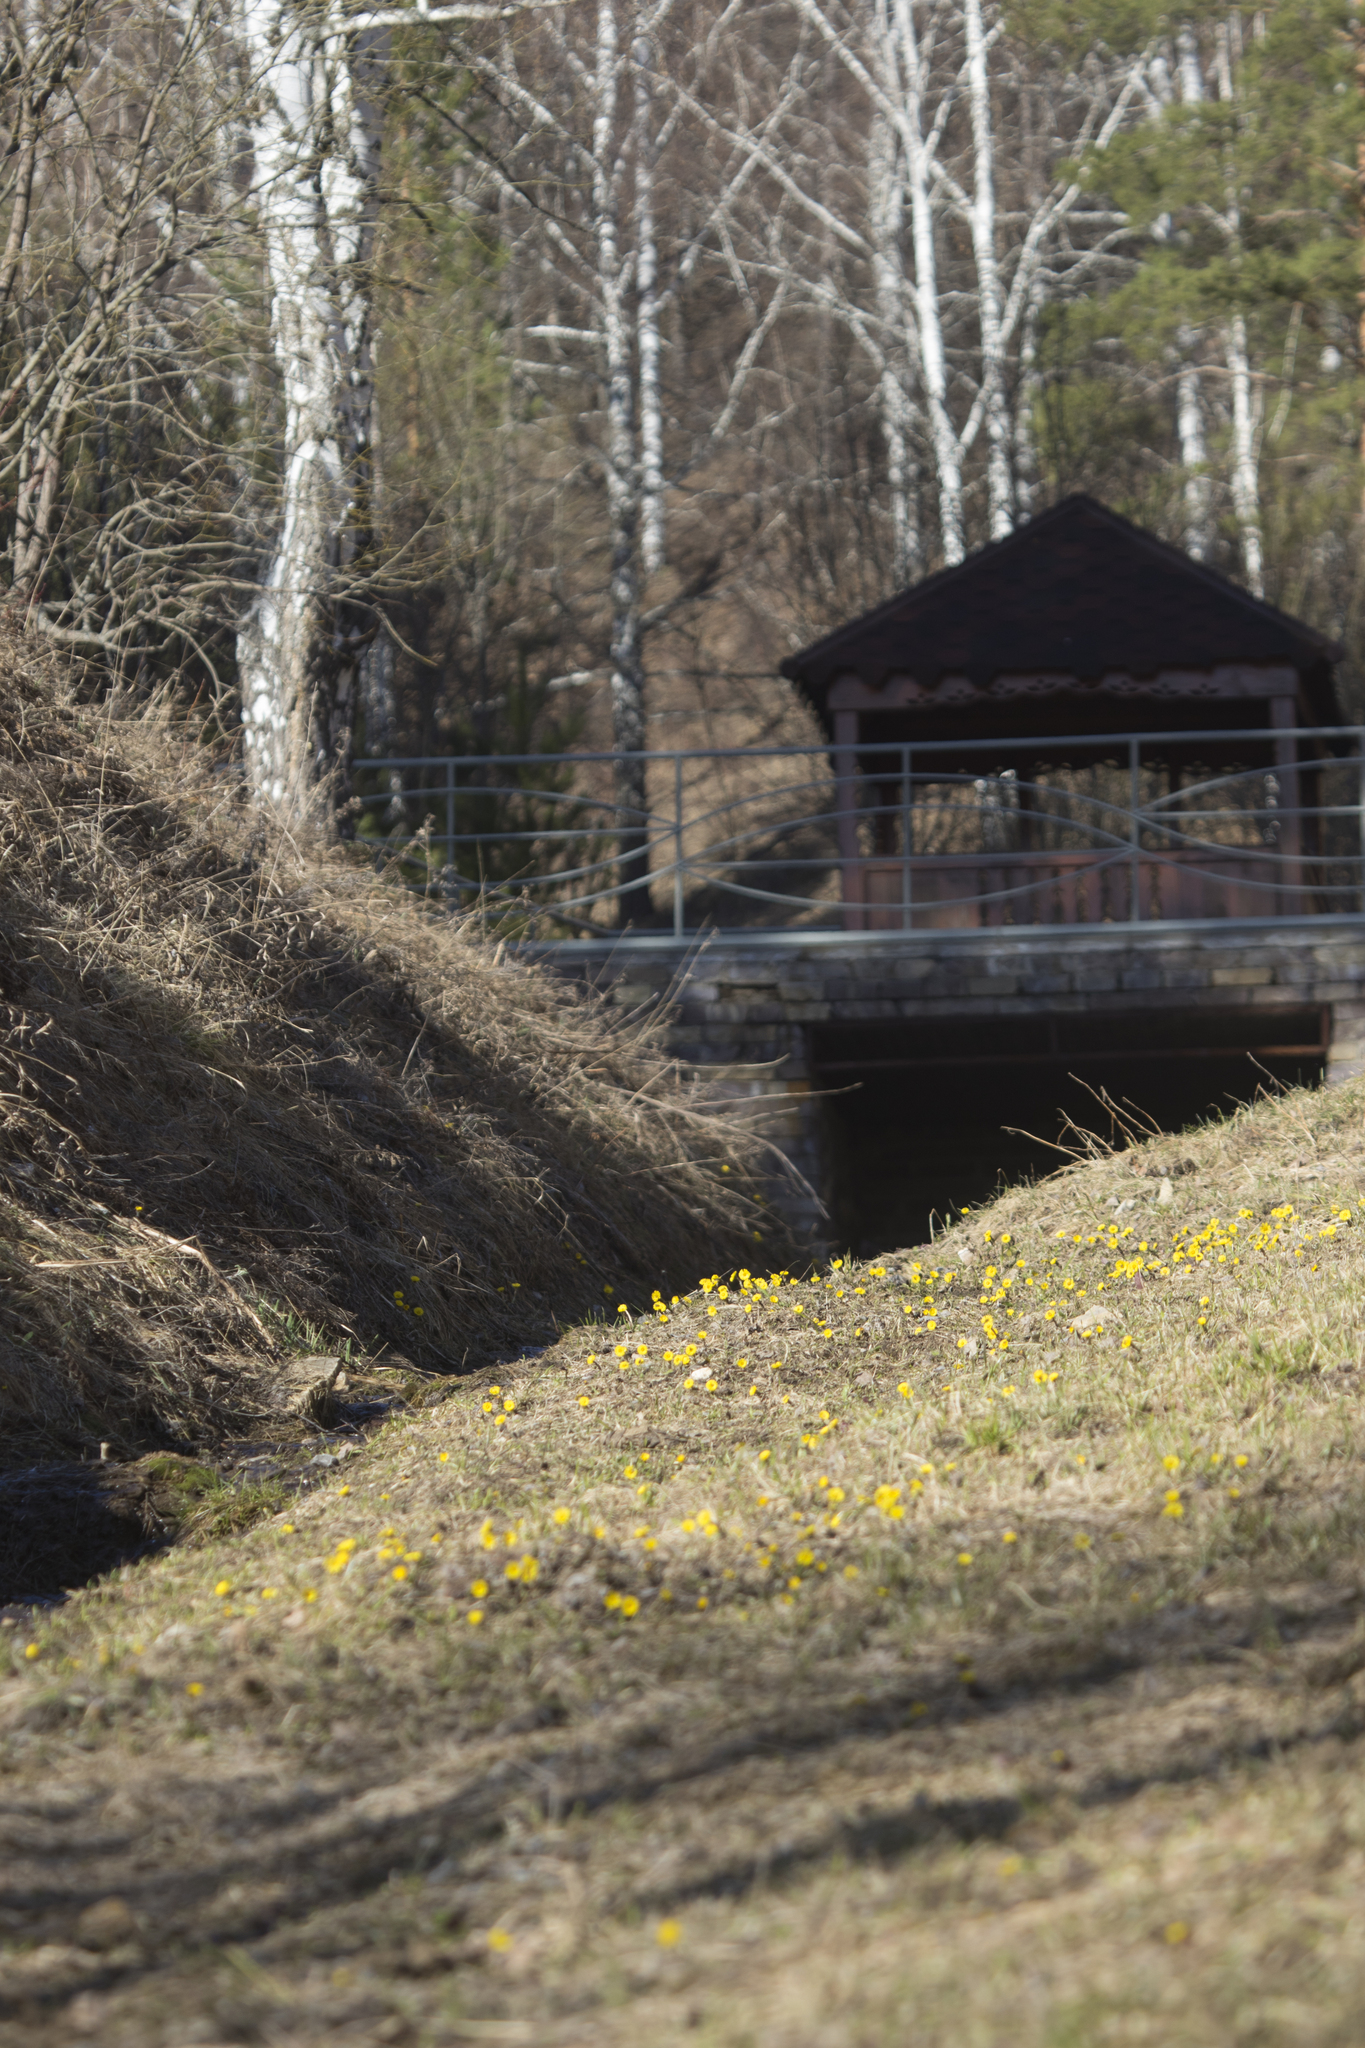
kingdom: Plantae
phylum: Tracheophyta
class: Magnoliopsida
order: Asterales
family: Asteraceae
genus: Tussilago
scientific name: Tussilago farfara
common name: Coltsfoot
